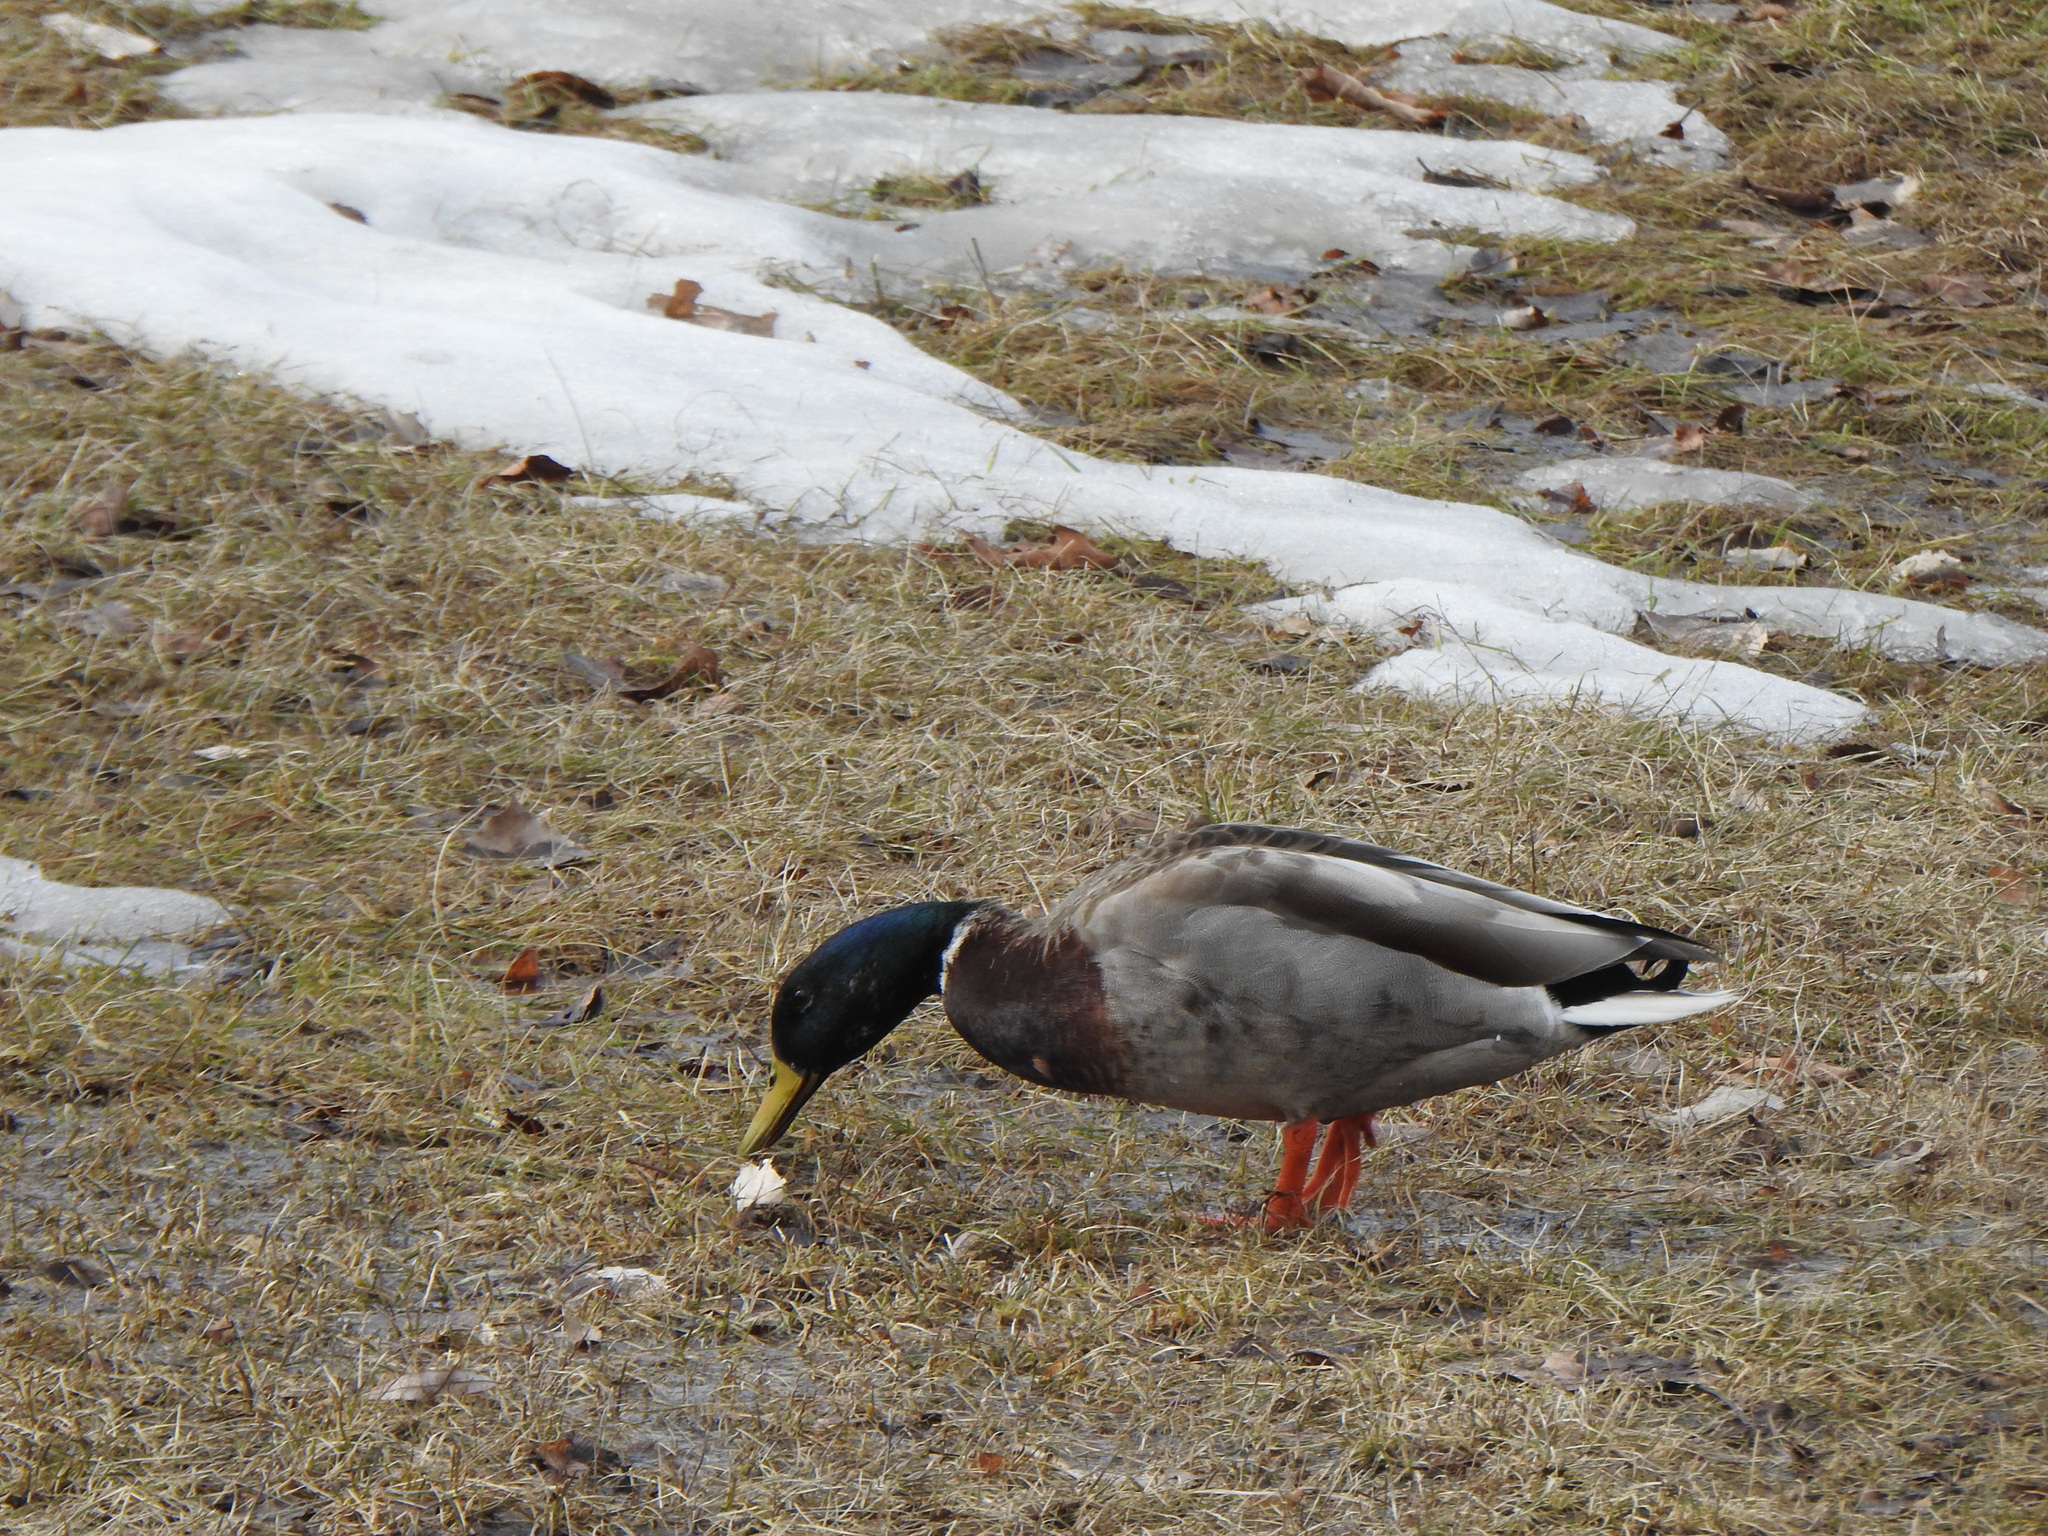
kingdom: Animalia
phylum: Chordata
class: Aves
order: Anseriformes
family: Anatidae
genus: Anas
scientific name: Anas platyrhynchos
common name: Mallard
